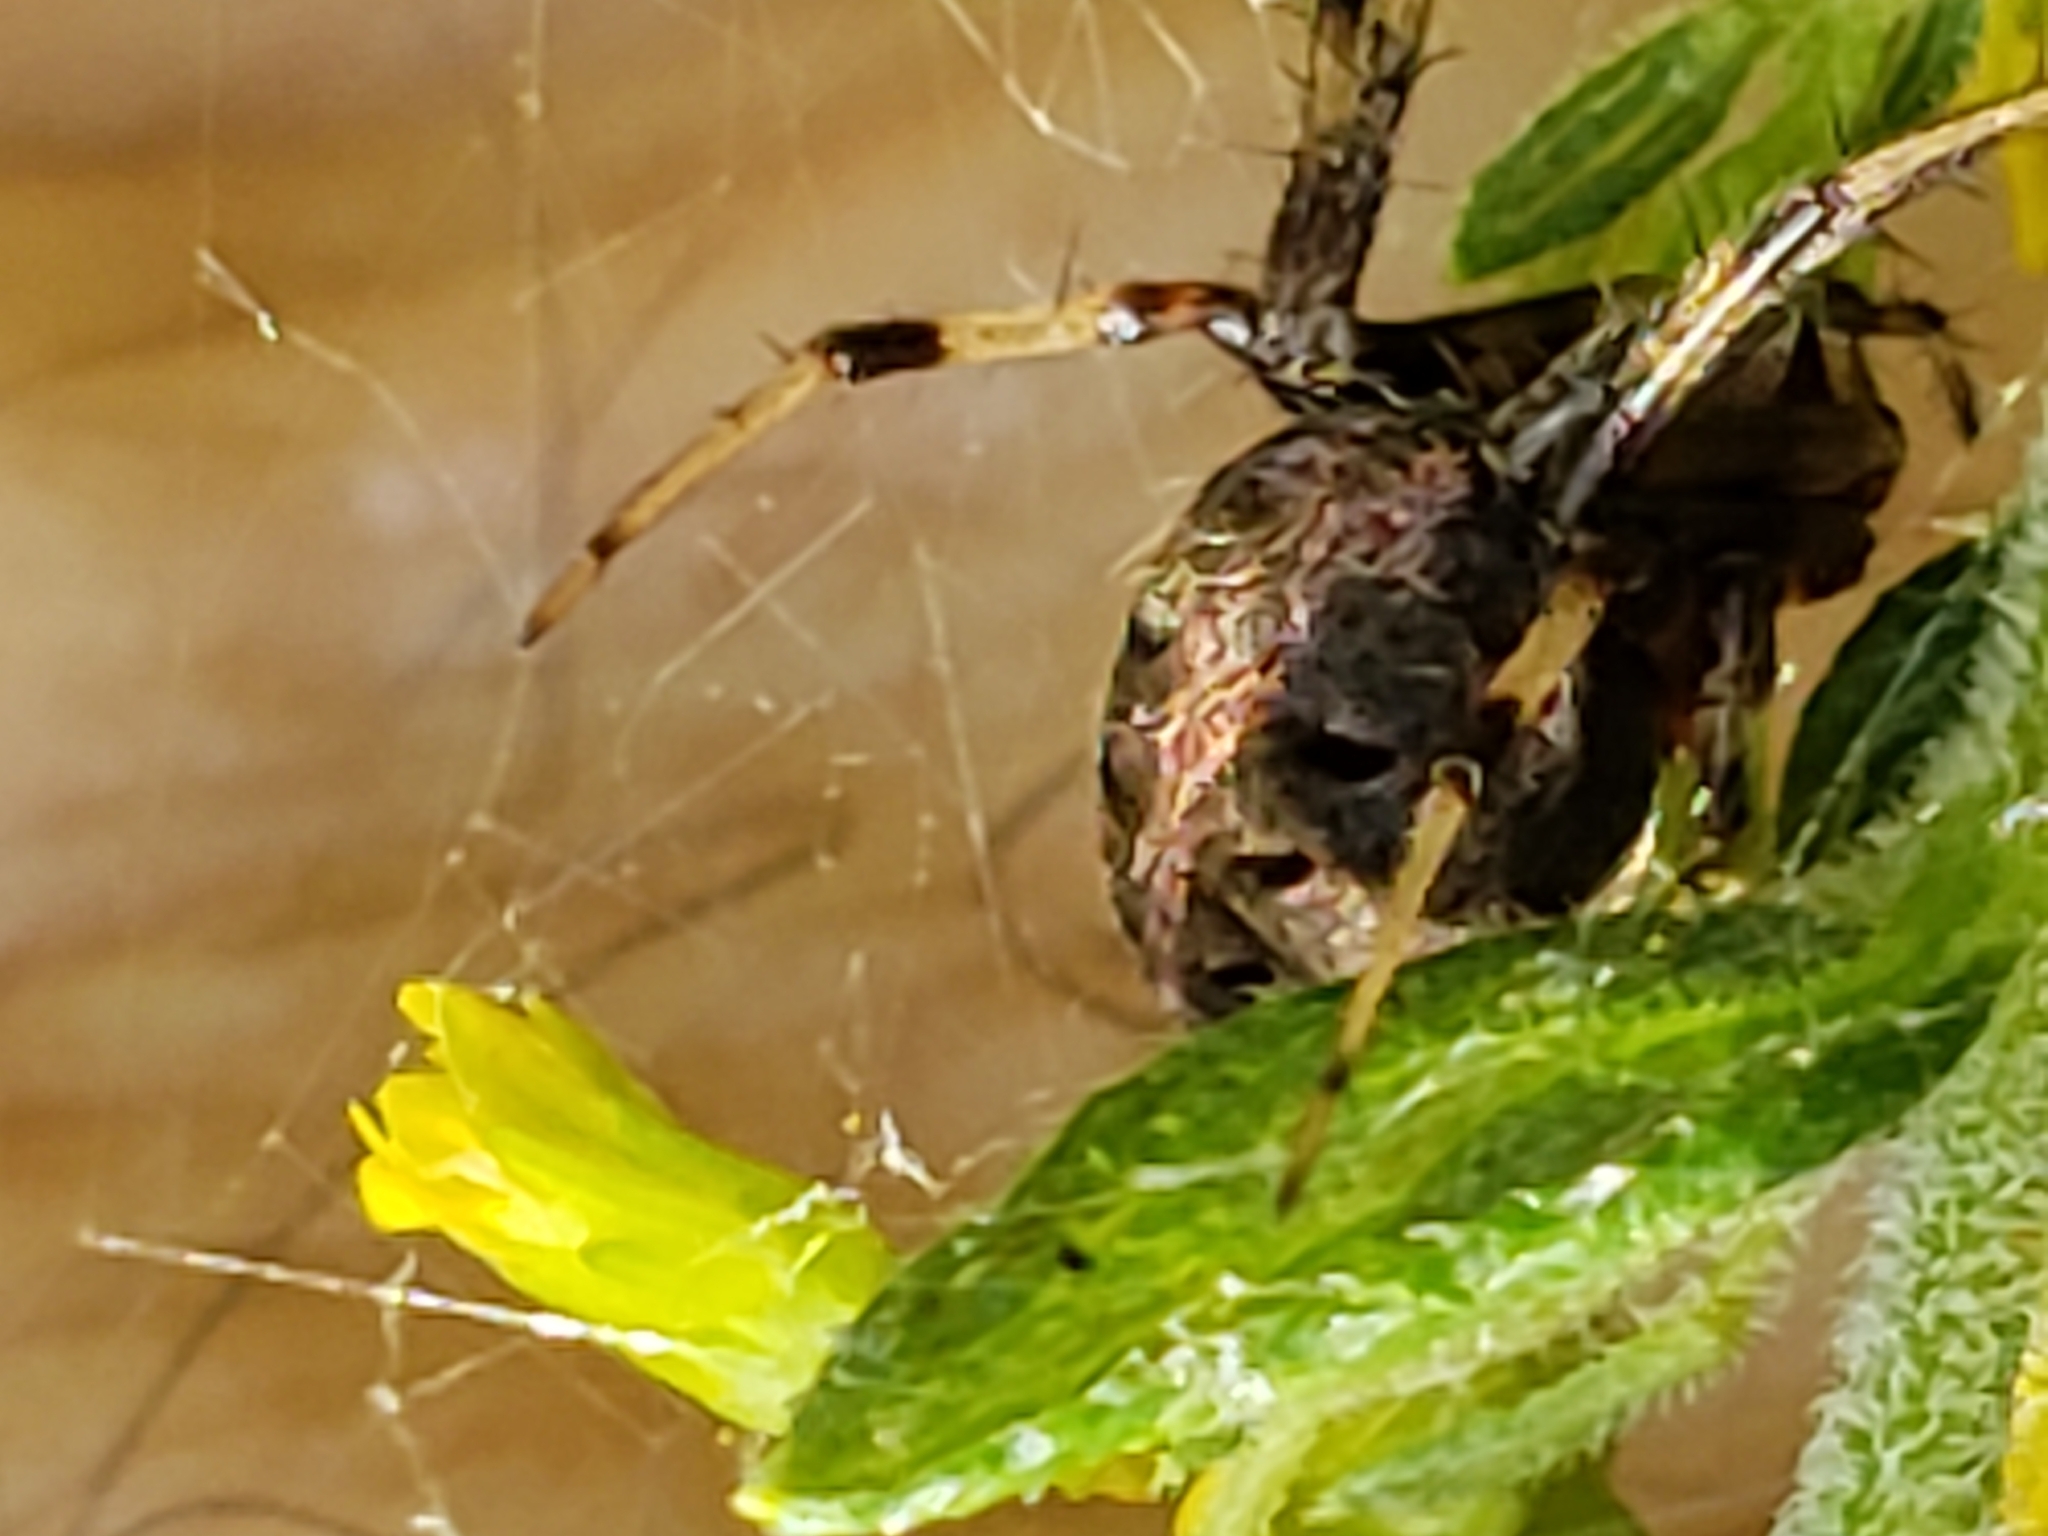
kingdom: Animalia
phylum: Arthropoda
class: Arachnida
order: Araneae
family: Araneidae
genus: Neoscona
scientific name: Neoscona arabesca
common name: Orb weavers
